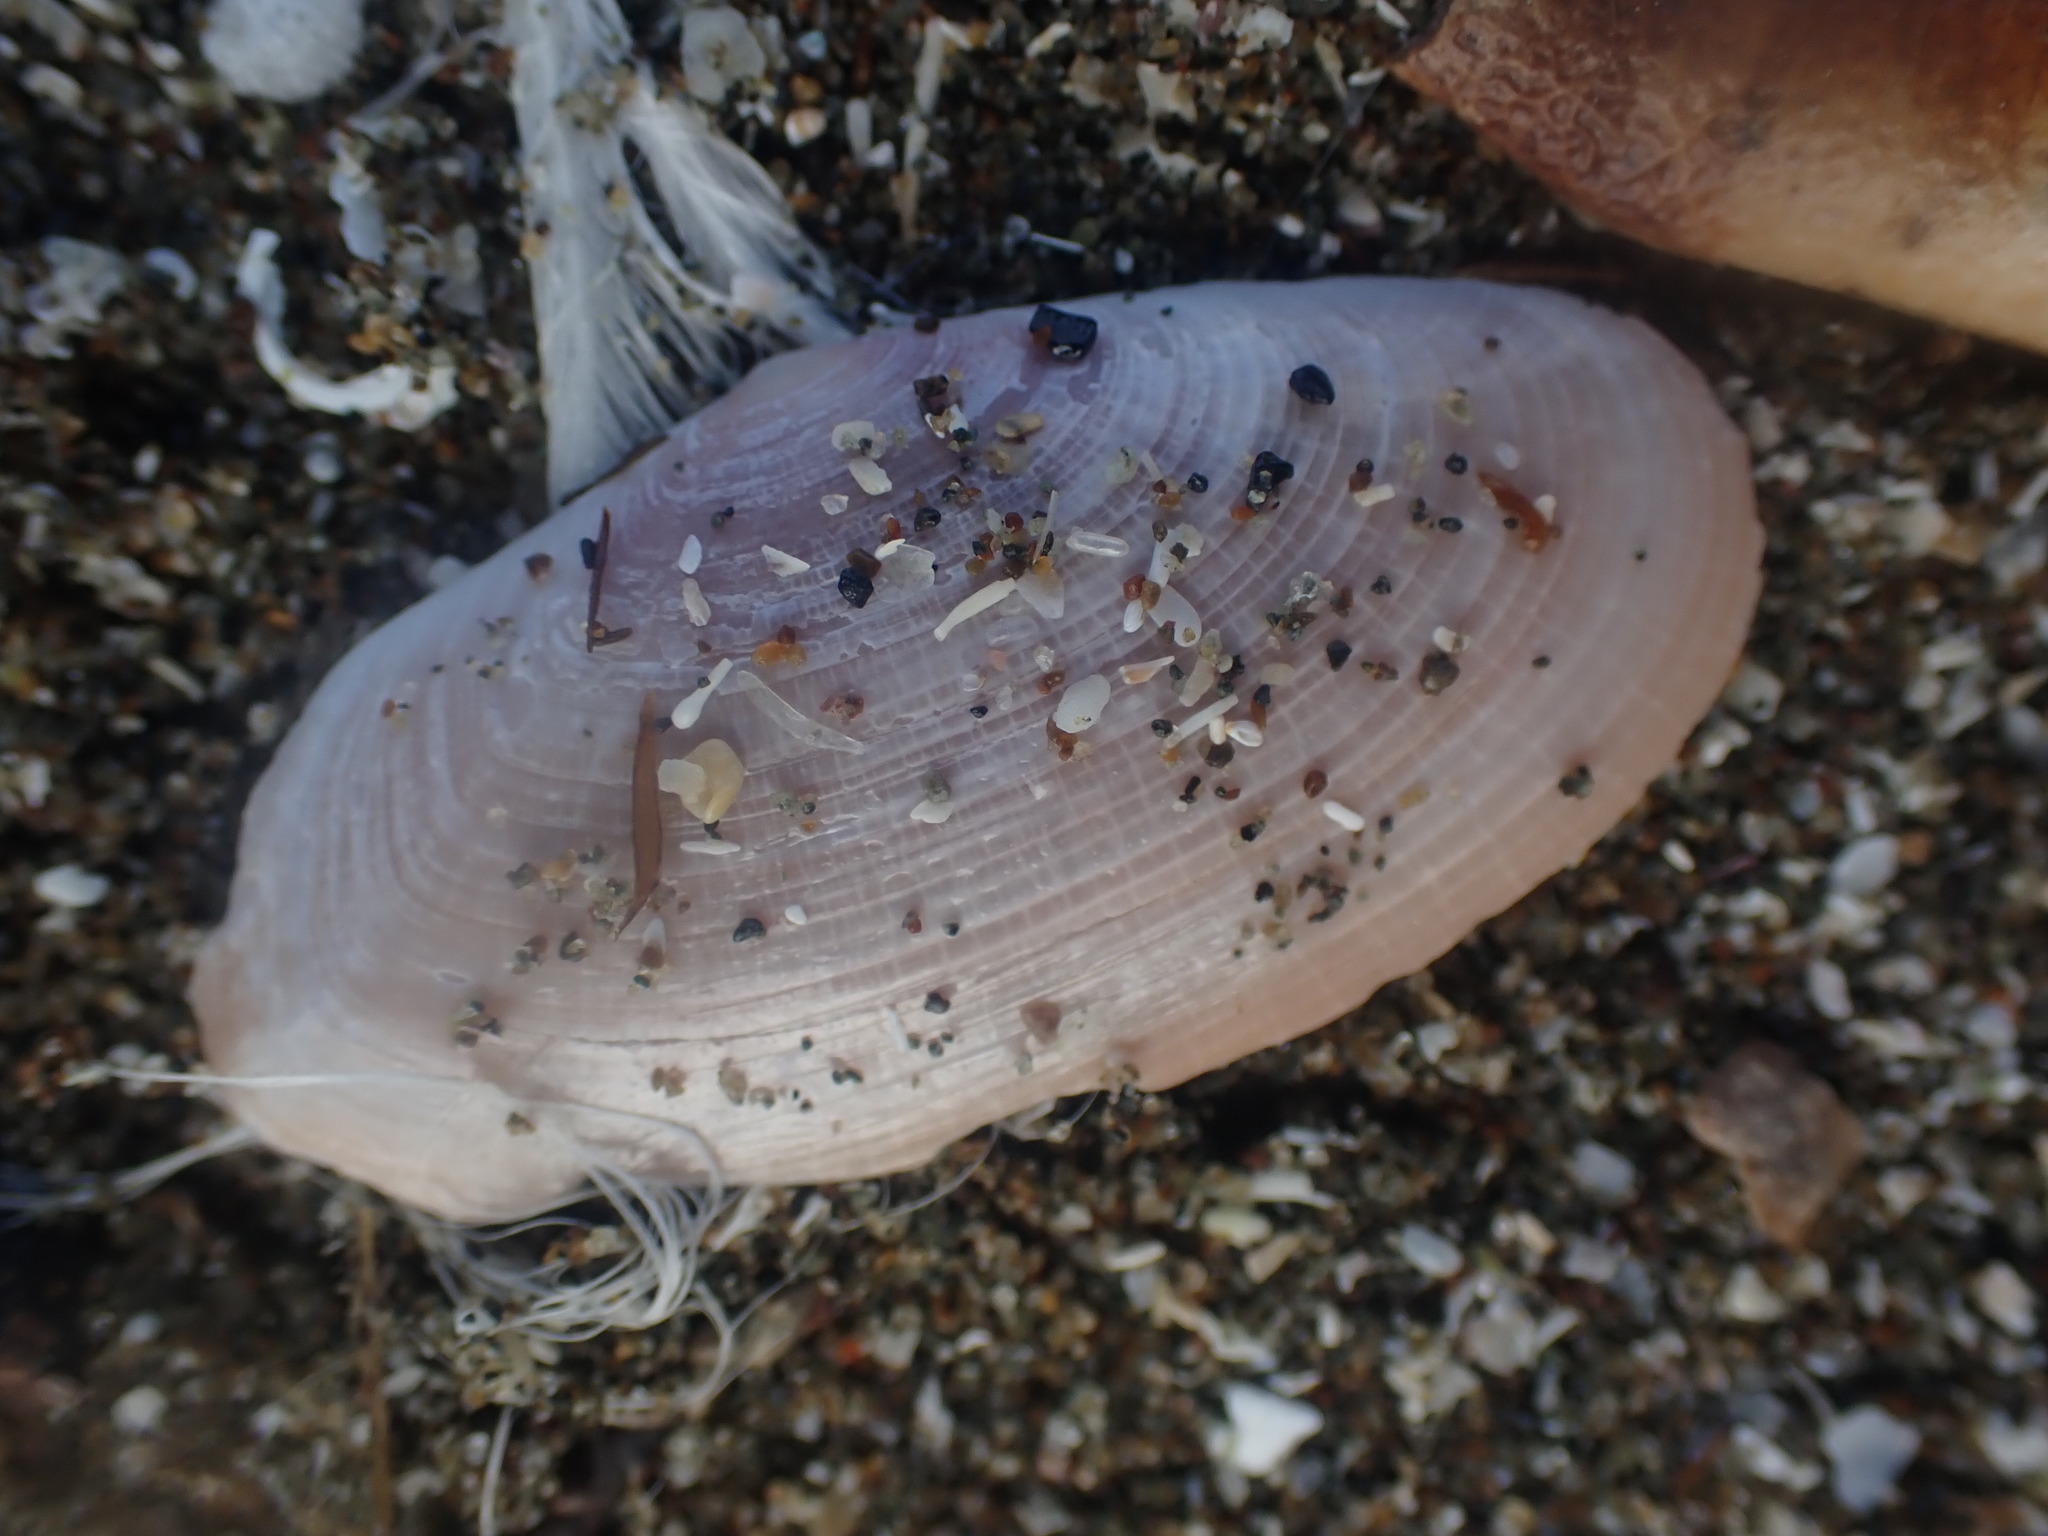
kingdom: Animalia
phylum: Mollusca
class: Bivalvia
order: Cardiida
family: Psammobiidae
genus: Gari
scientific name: Gari lineolata
